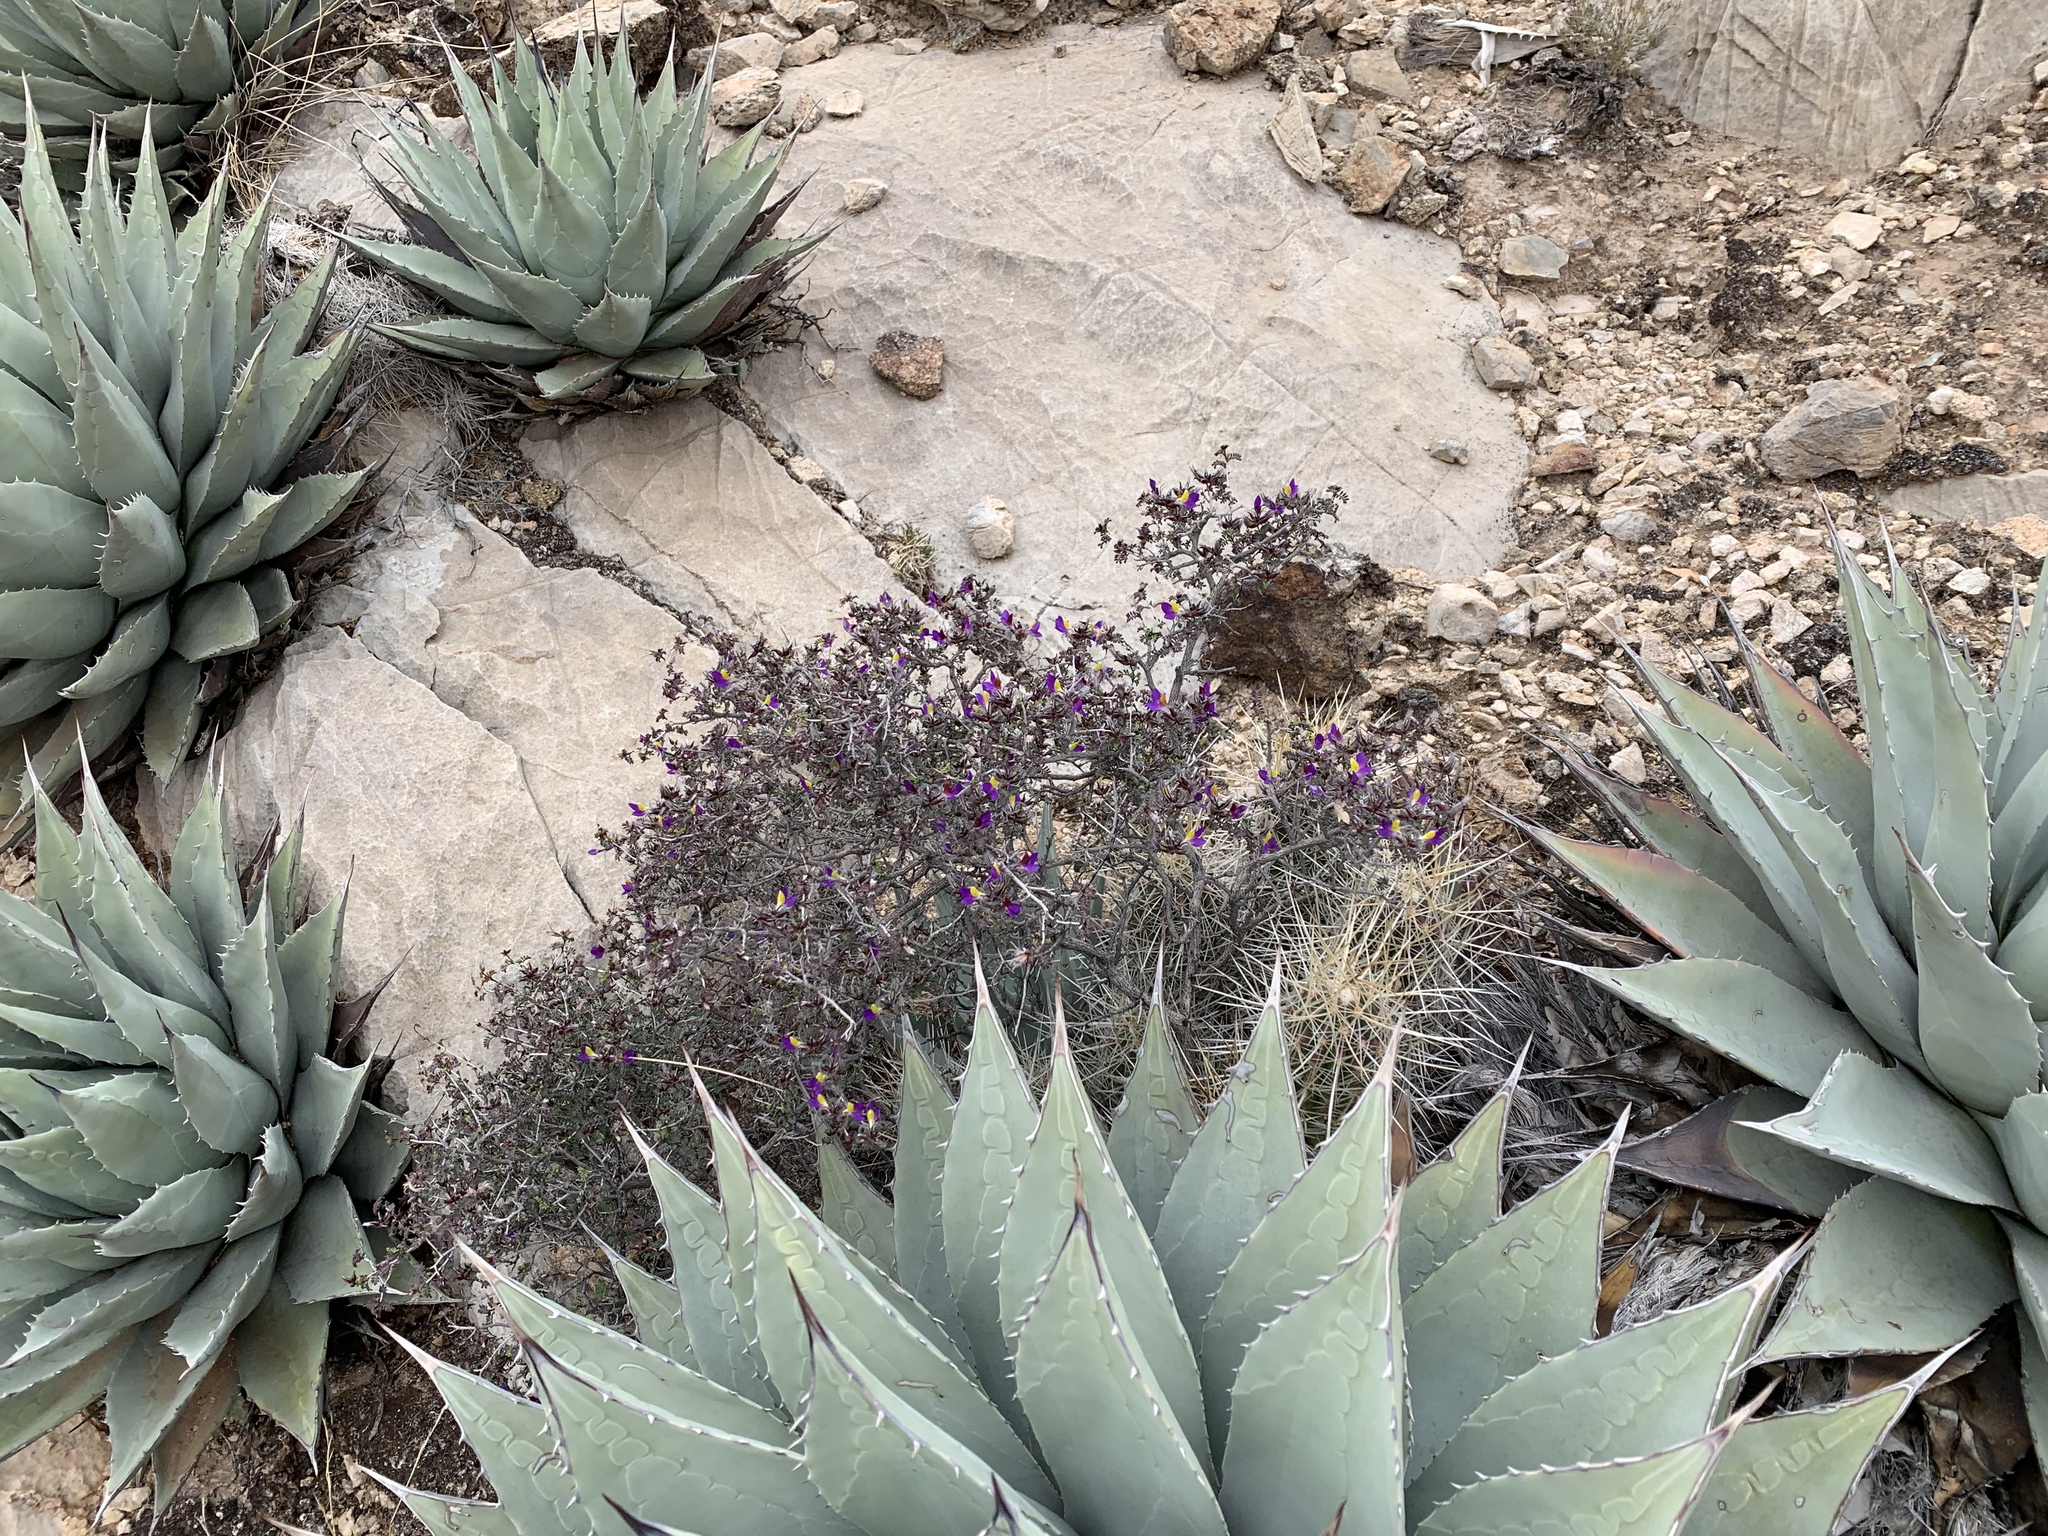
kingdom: Plantae
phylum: Tracheophyta
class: Magnoliopsida
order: Fabales
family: Fabaceae
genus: Dalea
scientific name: Dalea formosa
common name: Feather-plume dalea
